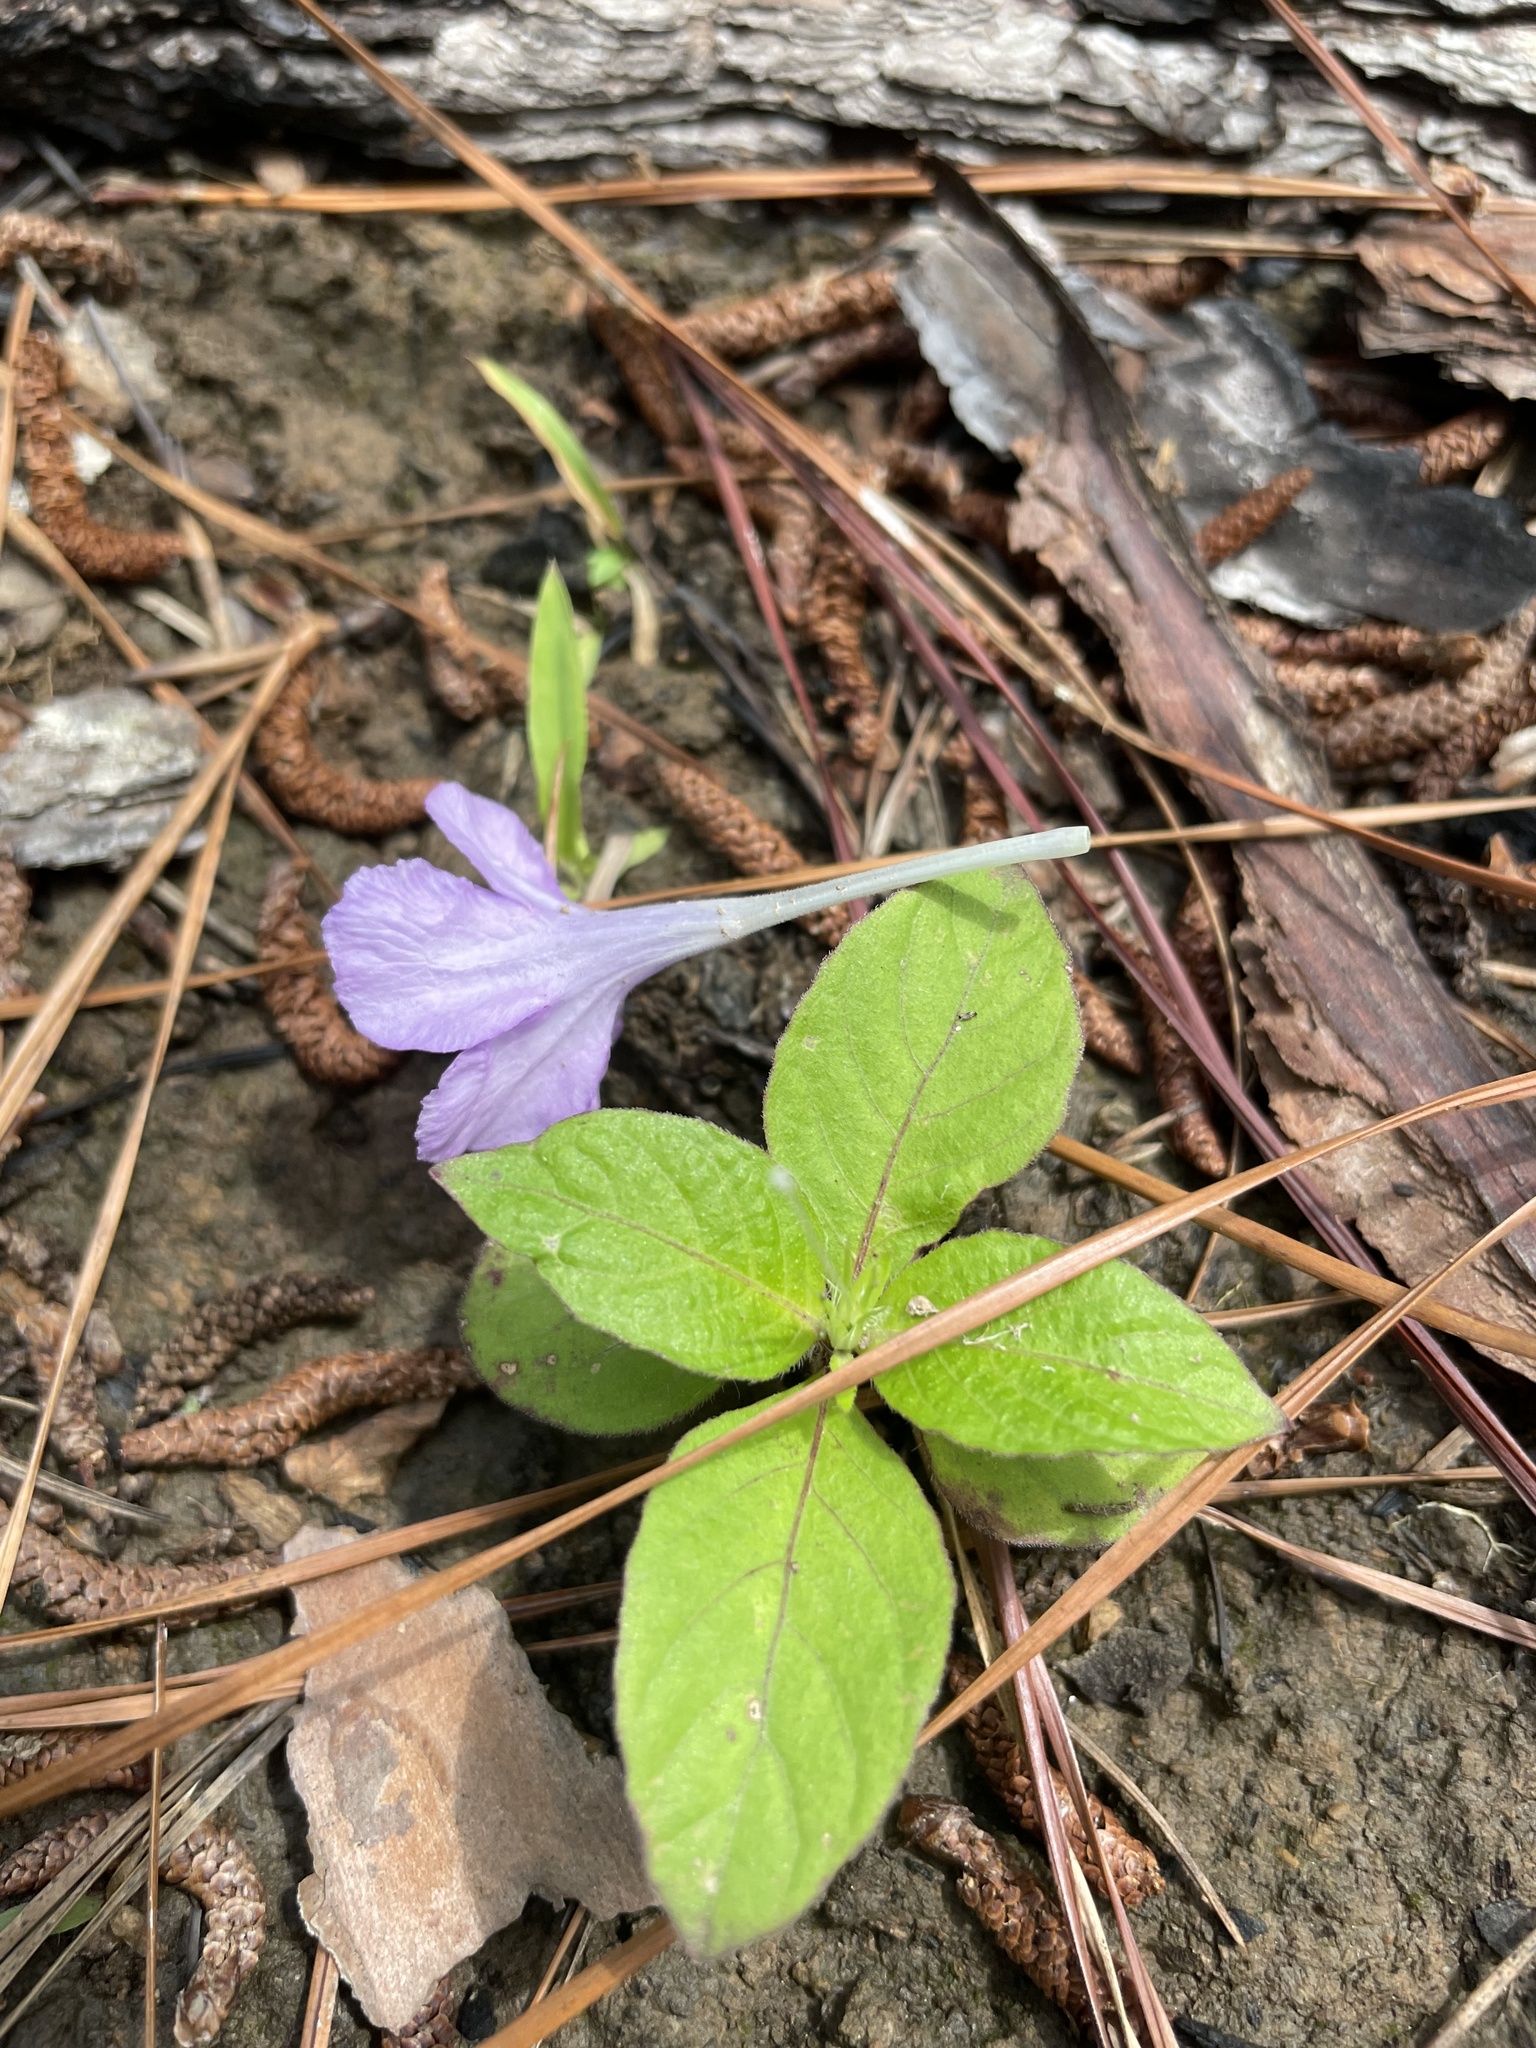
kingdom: Plantae
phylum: Tracheophyta
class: Magnoliopsida
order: Lamiales
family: Acanthaceae
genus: Ruellia
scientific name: Ruellia caroliniensis
